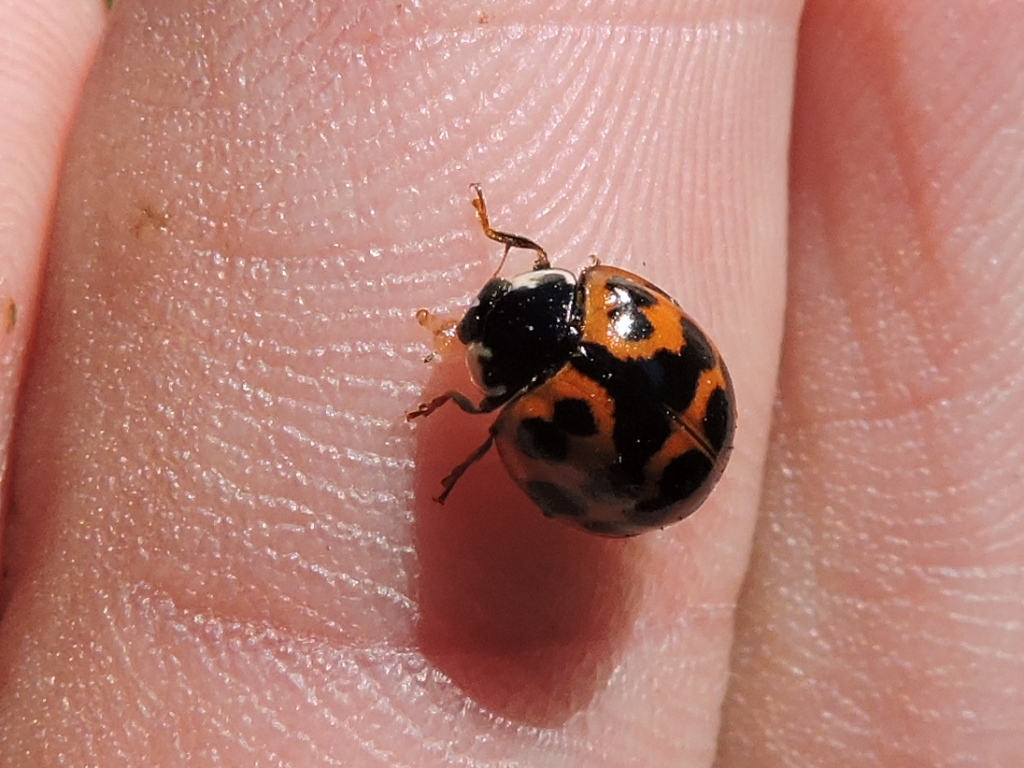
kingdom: Animalia
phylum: Arthropoda
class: Insecta
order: Coleoptera
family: Coccinellidae
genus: Harmonia
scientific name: Harmonia axyridis
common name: Harlequin ladybird
